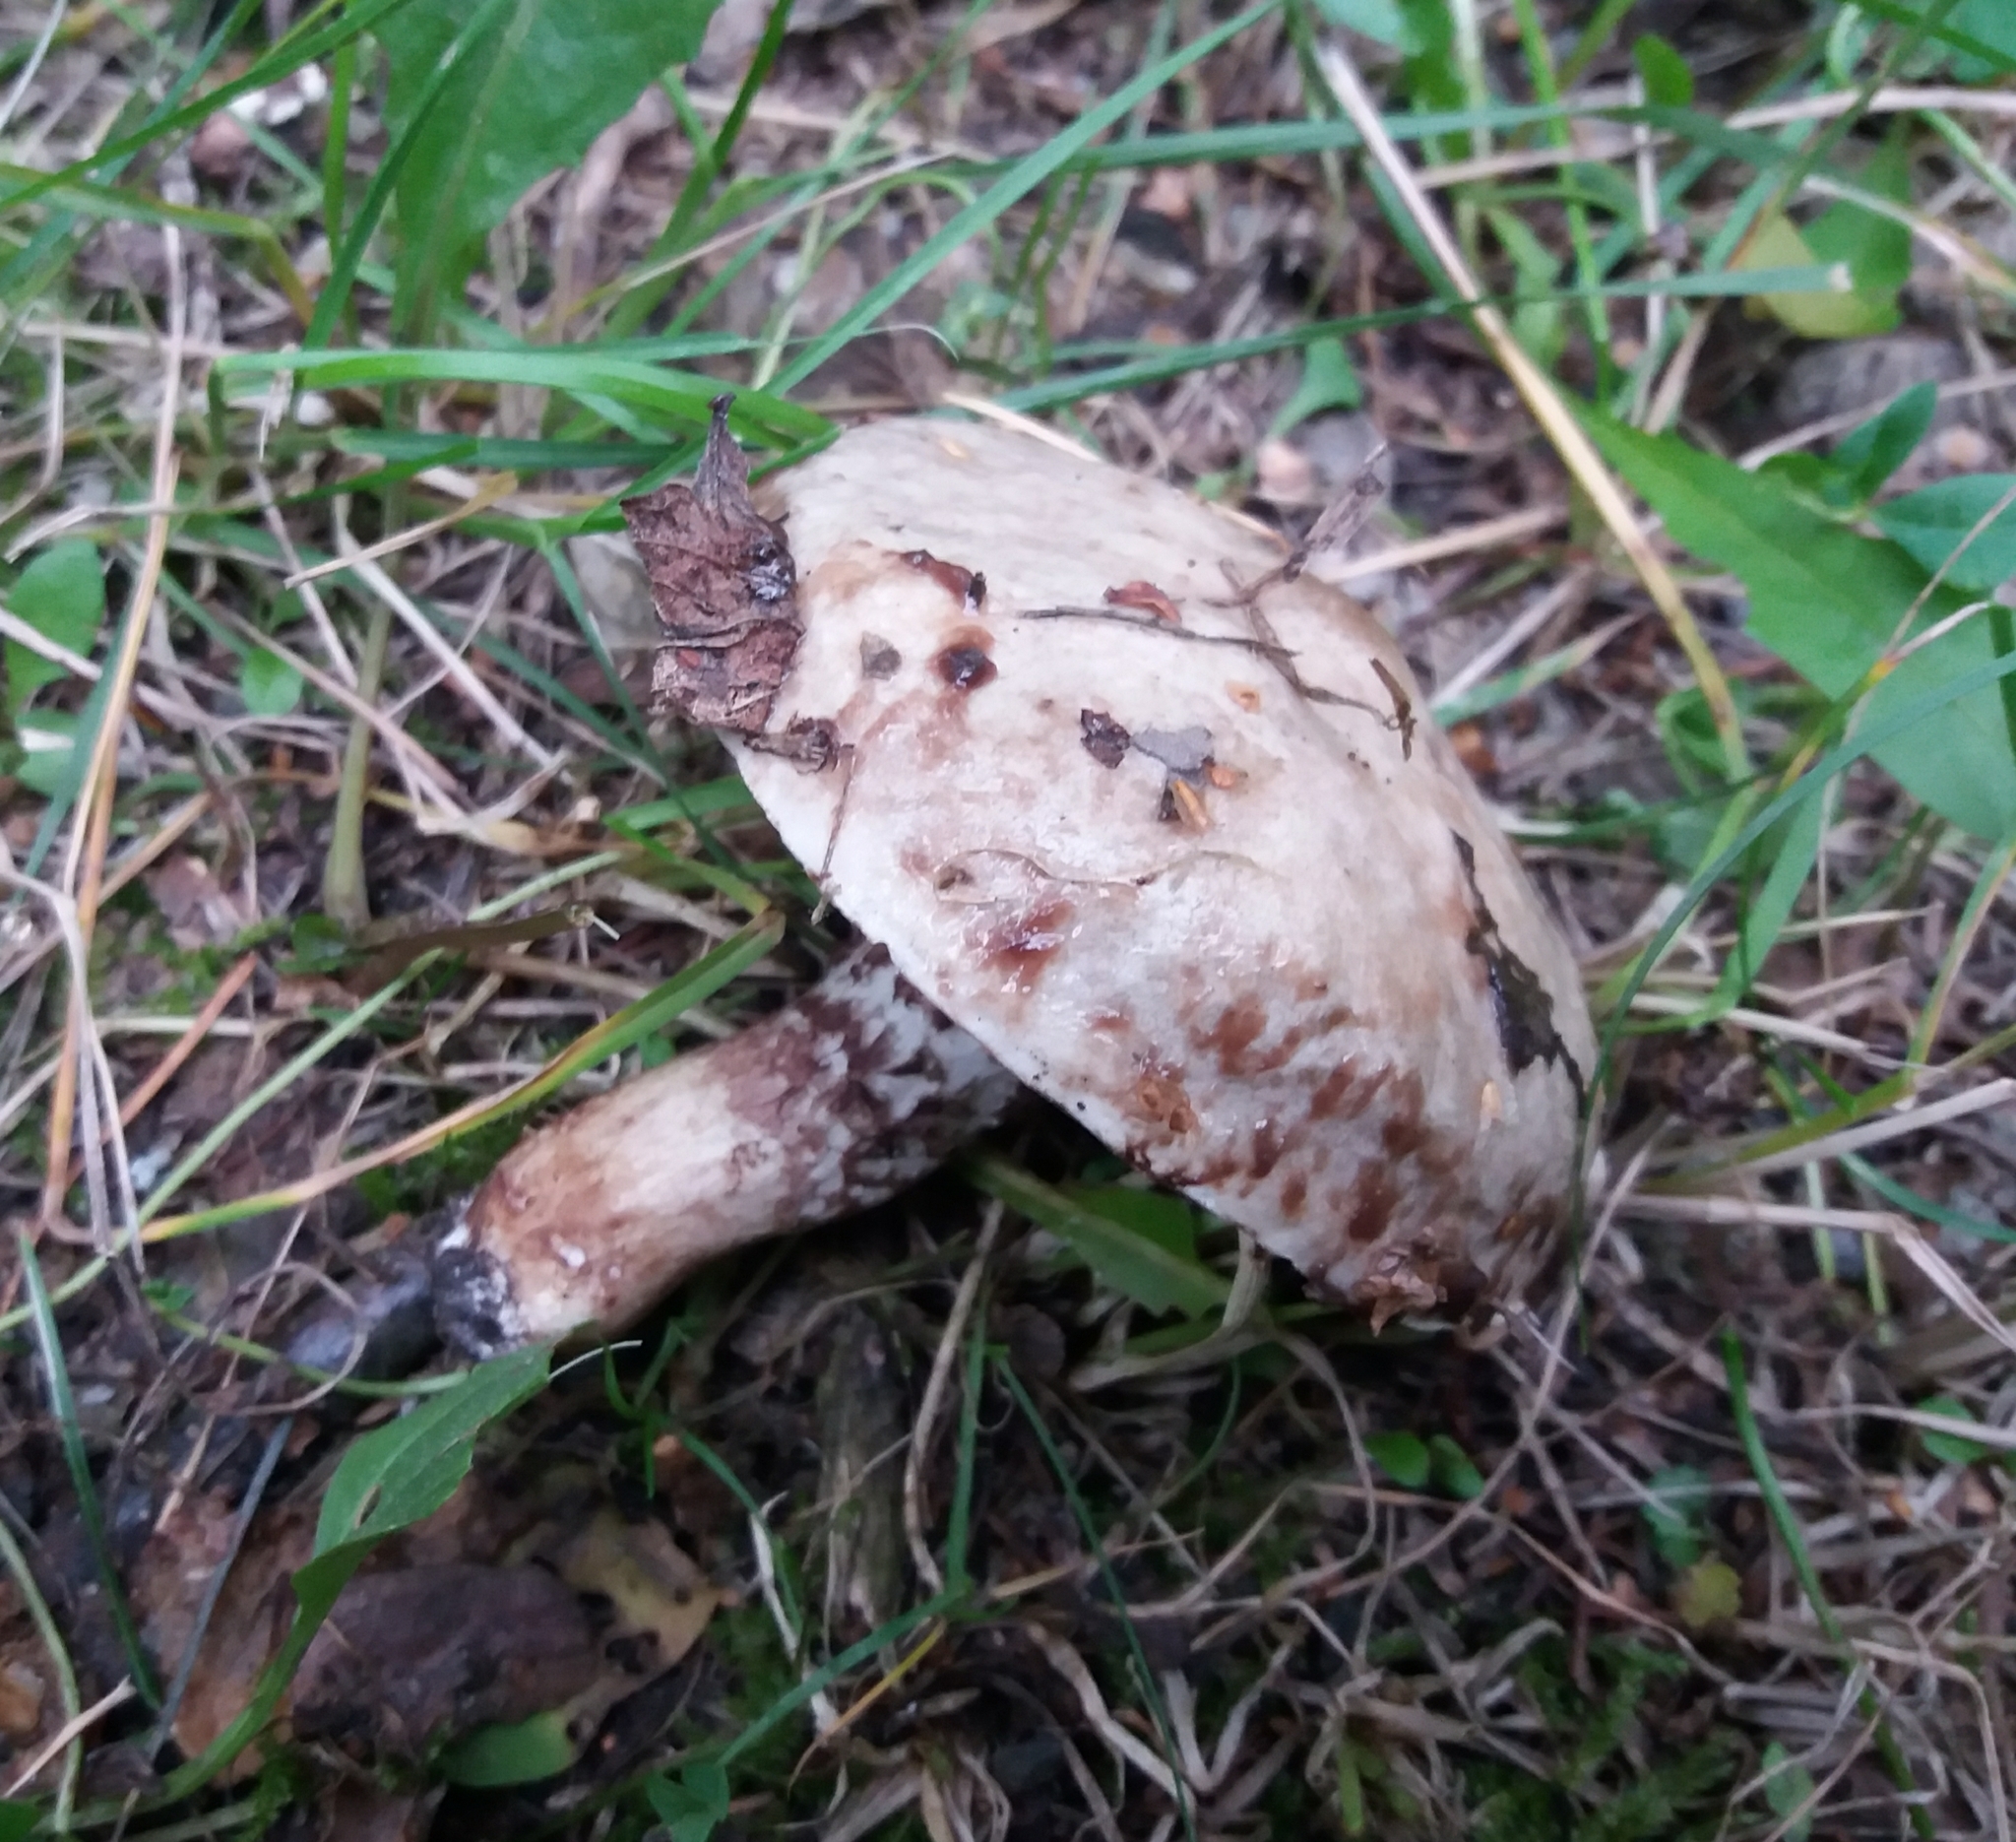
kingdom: Fungi
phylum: Basidiomycota
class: Agaricomycetes
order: Boletales
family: Suillaceae
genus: Suillus
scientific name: Suillus viscidus
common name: Sticky bolete
